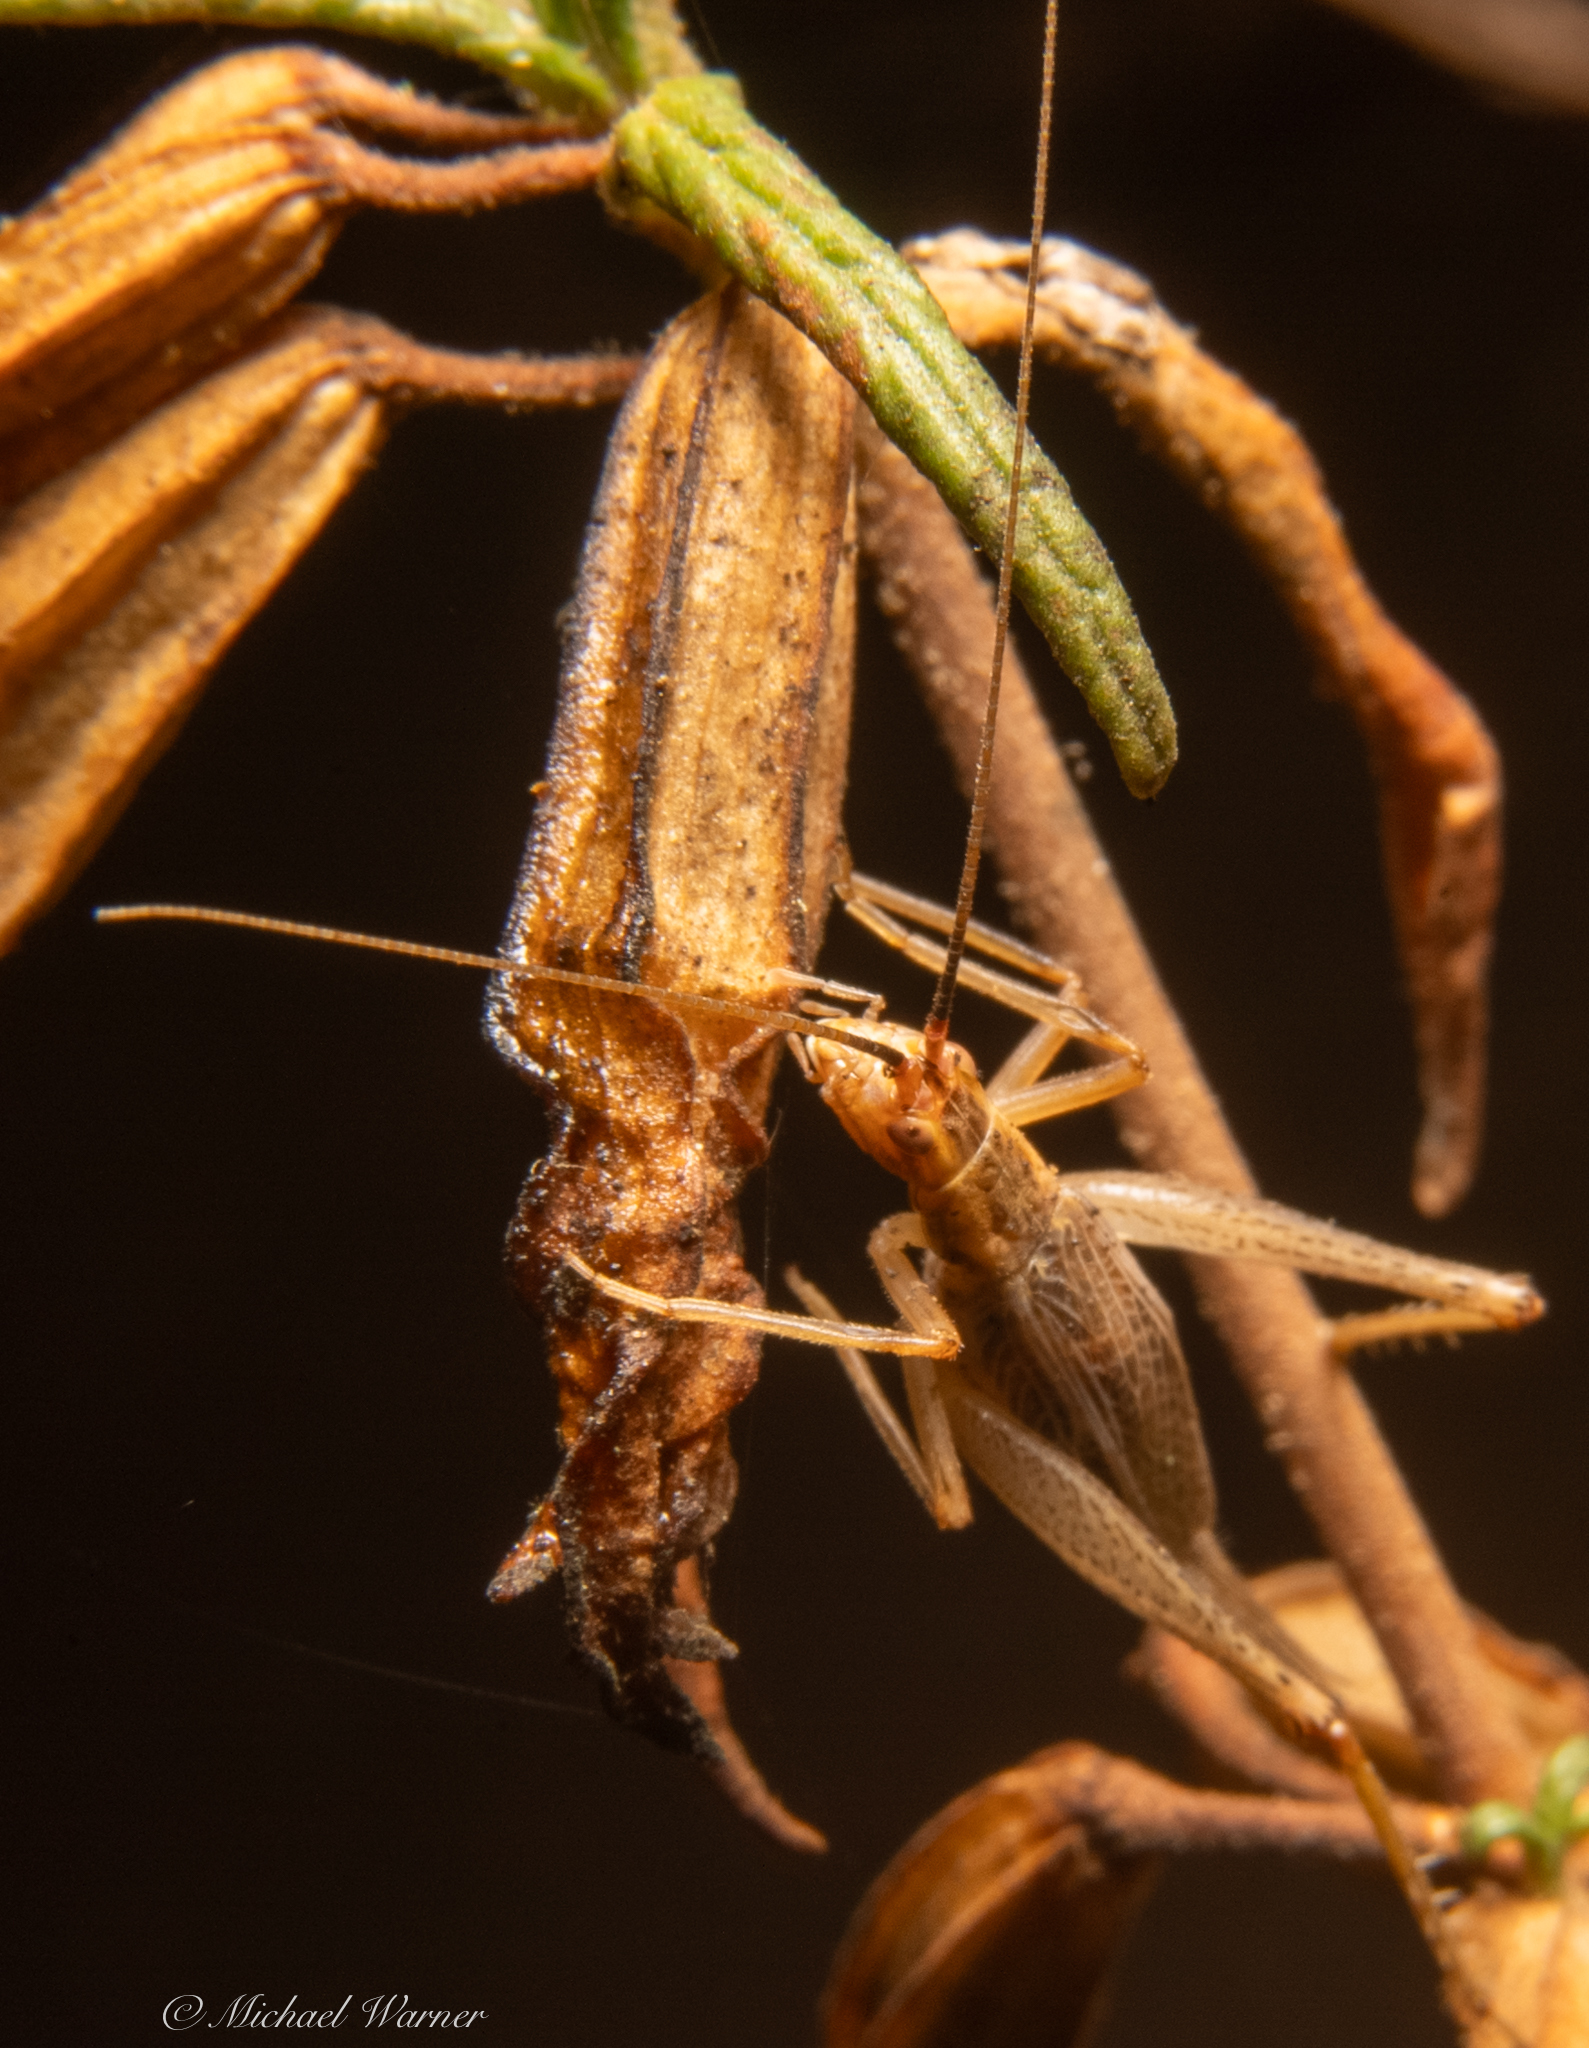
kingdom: Animalia
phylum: Arthropoda
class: Insecta
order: Orthoptera
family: Gryllidae
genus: Oecanthus
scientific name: Oecanthus californicus
